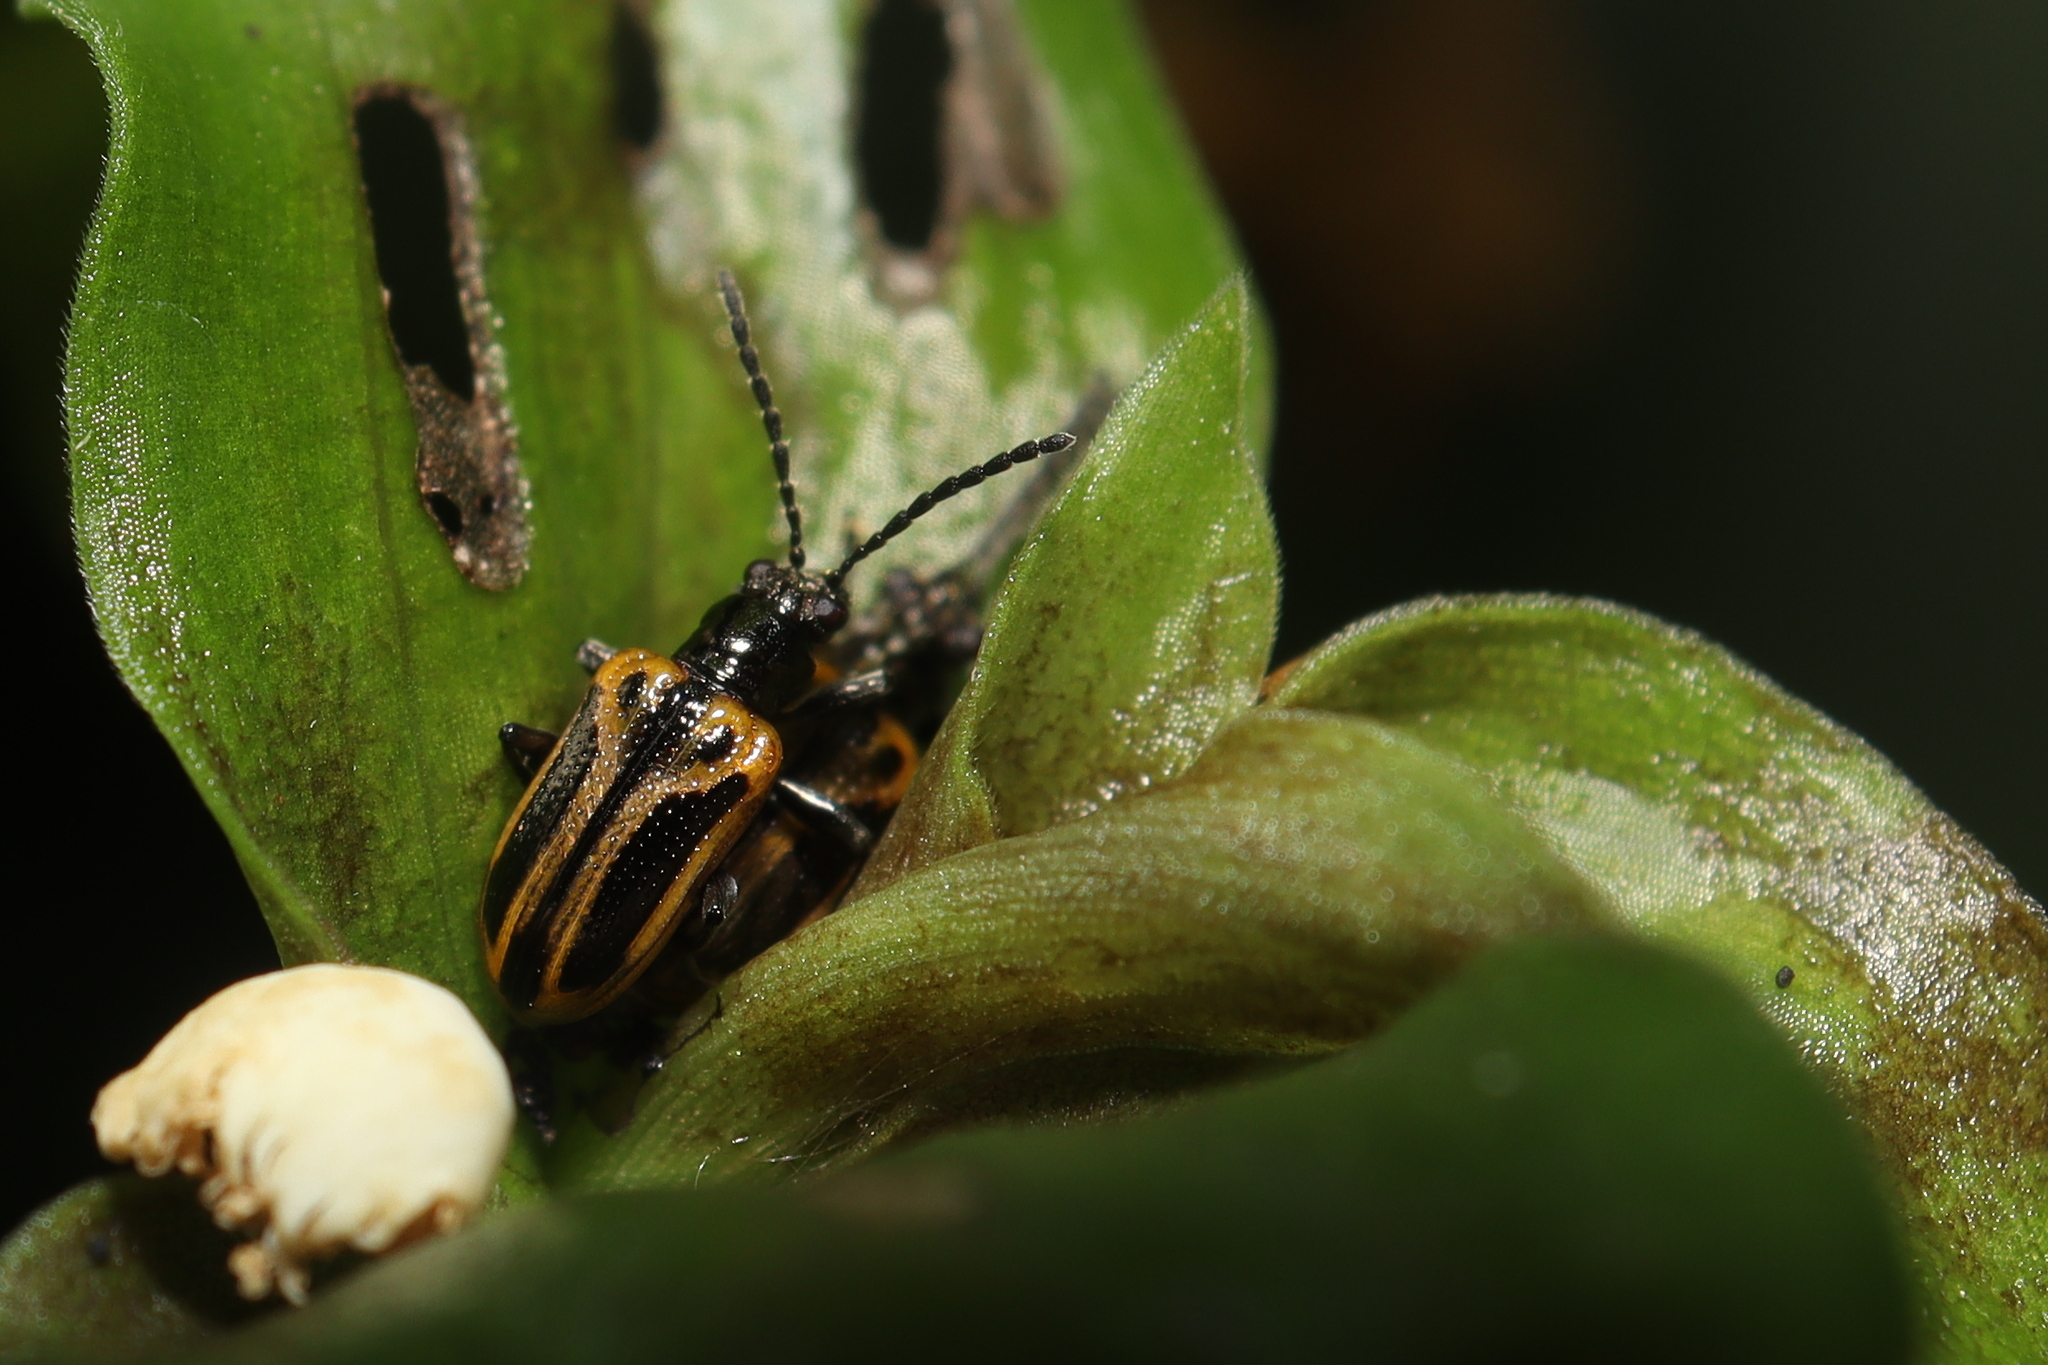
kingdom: Animalia
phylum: Arthropoda
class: Insecta
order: Coleoptera
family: Chrysomelidae
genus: Neolema
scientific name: Neolema
